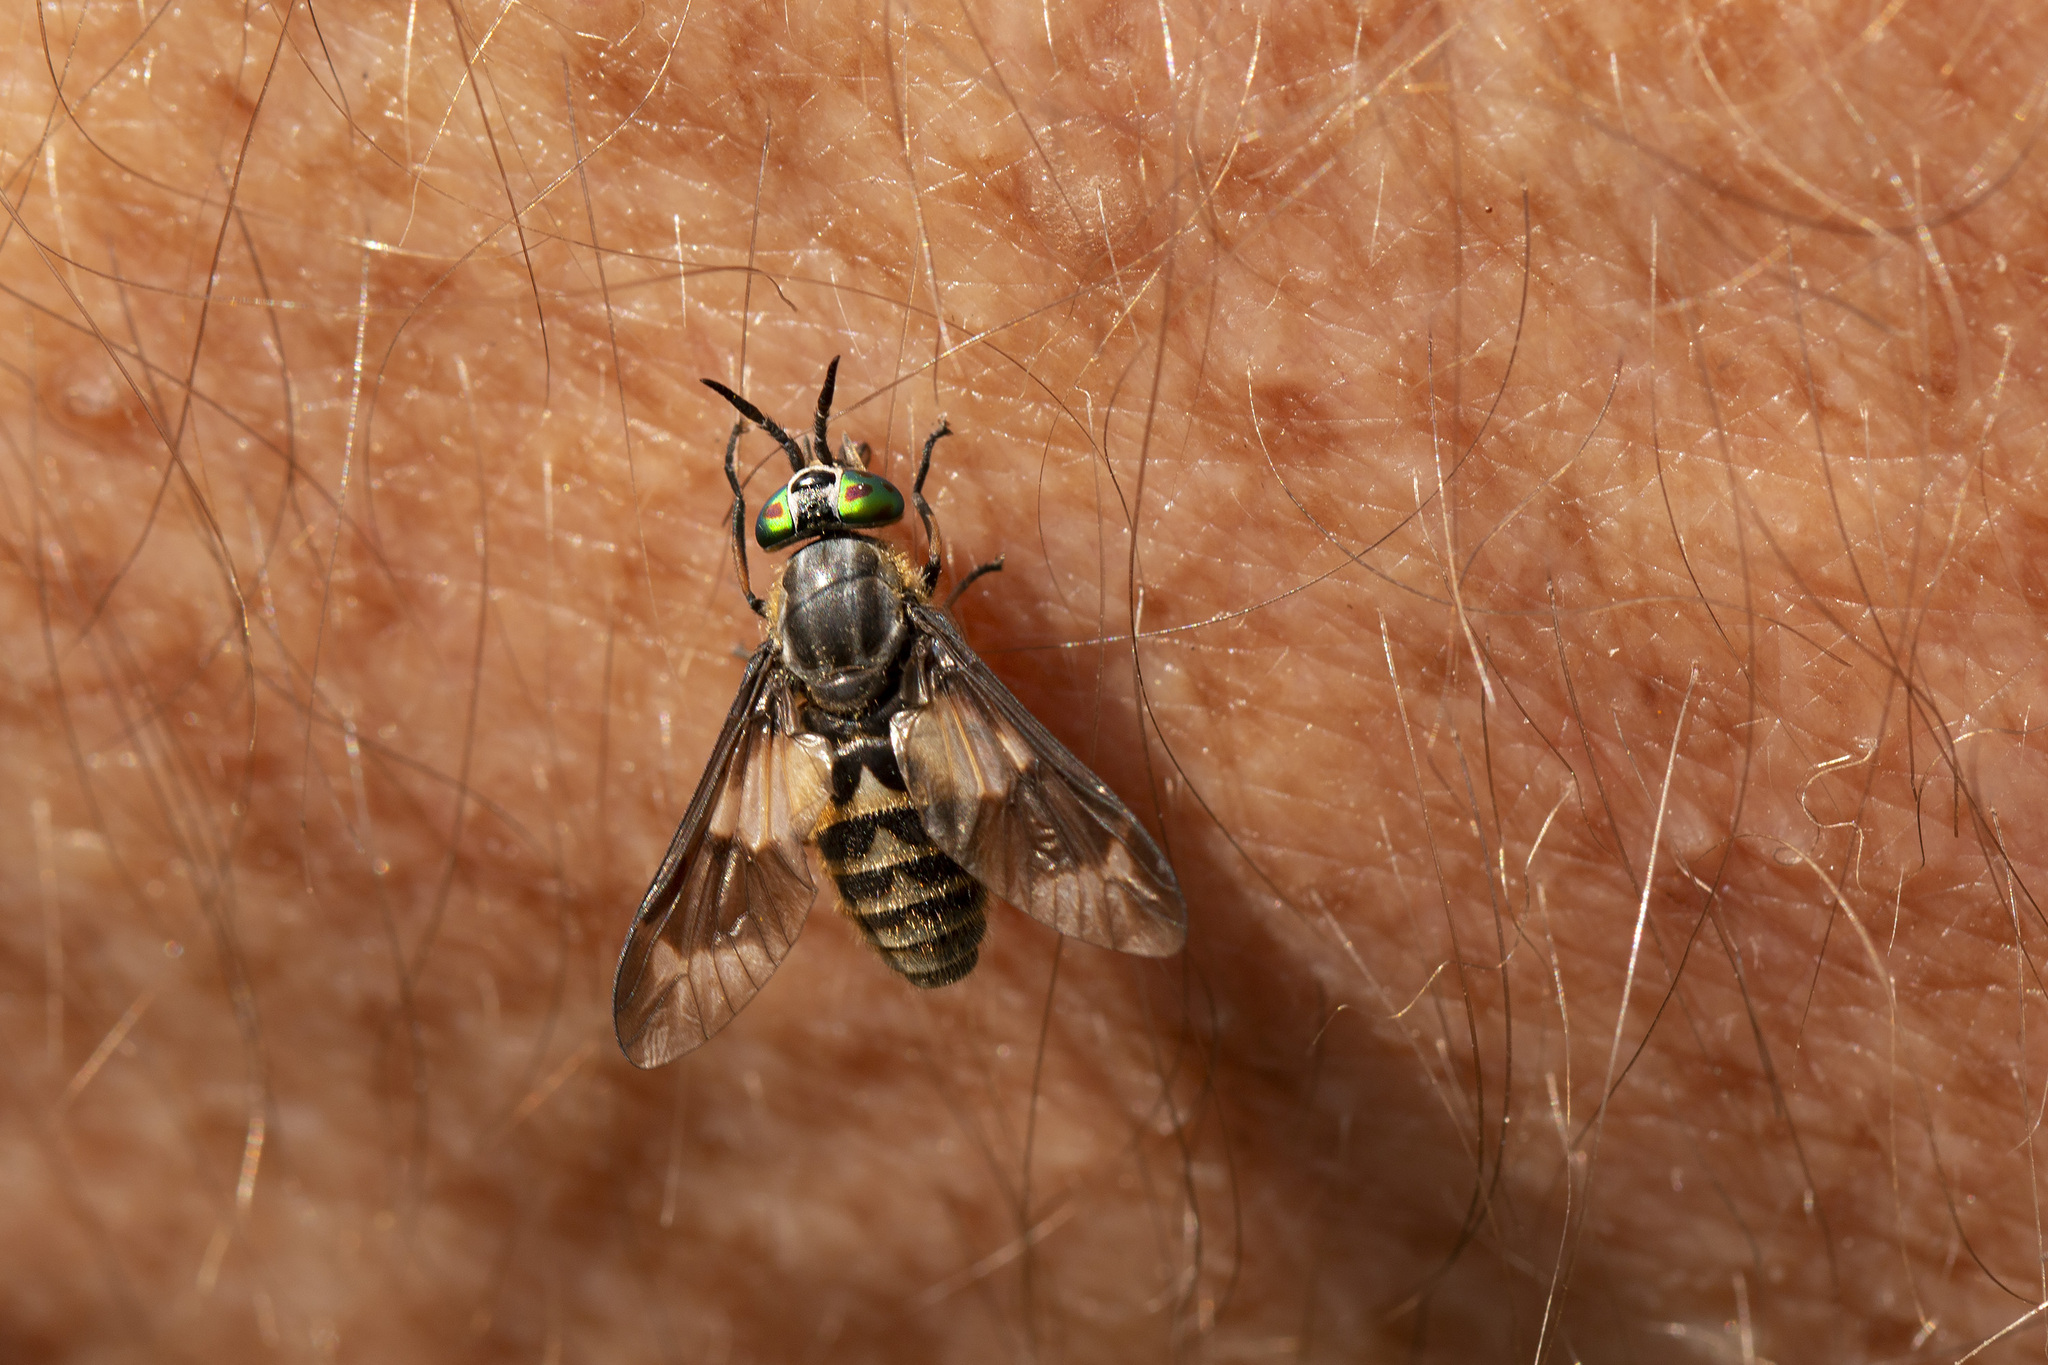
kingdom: Animalia
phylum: Arthropoda
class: Insecta
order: Diptera
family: Tabanidae
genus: Chrysops
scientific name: Chrysops relictus
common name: Twin-lobed deerfly
